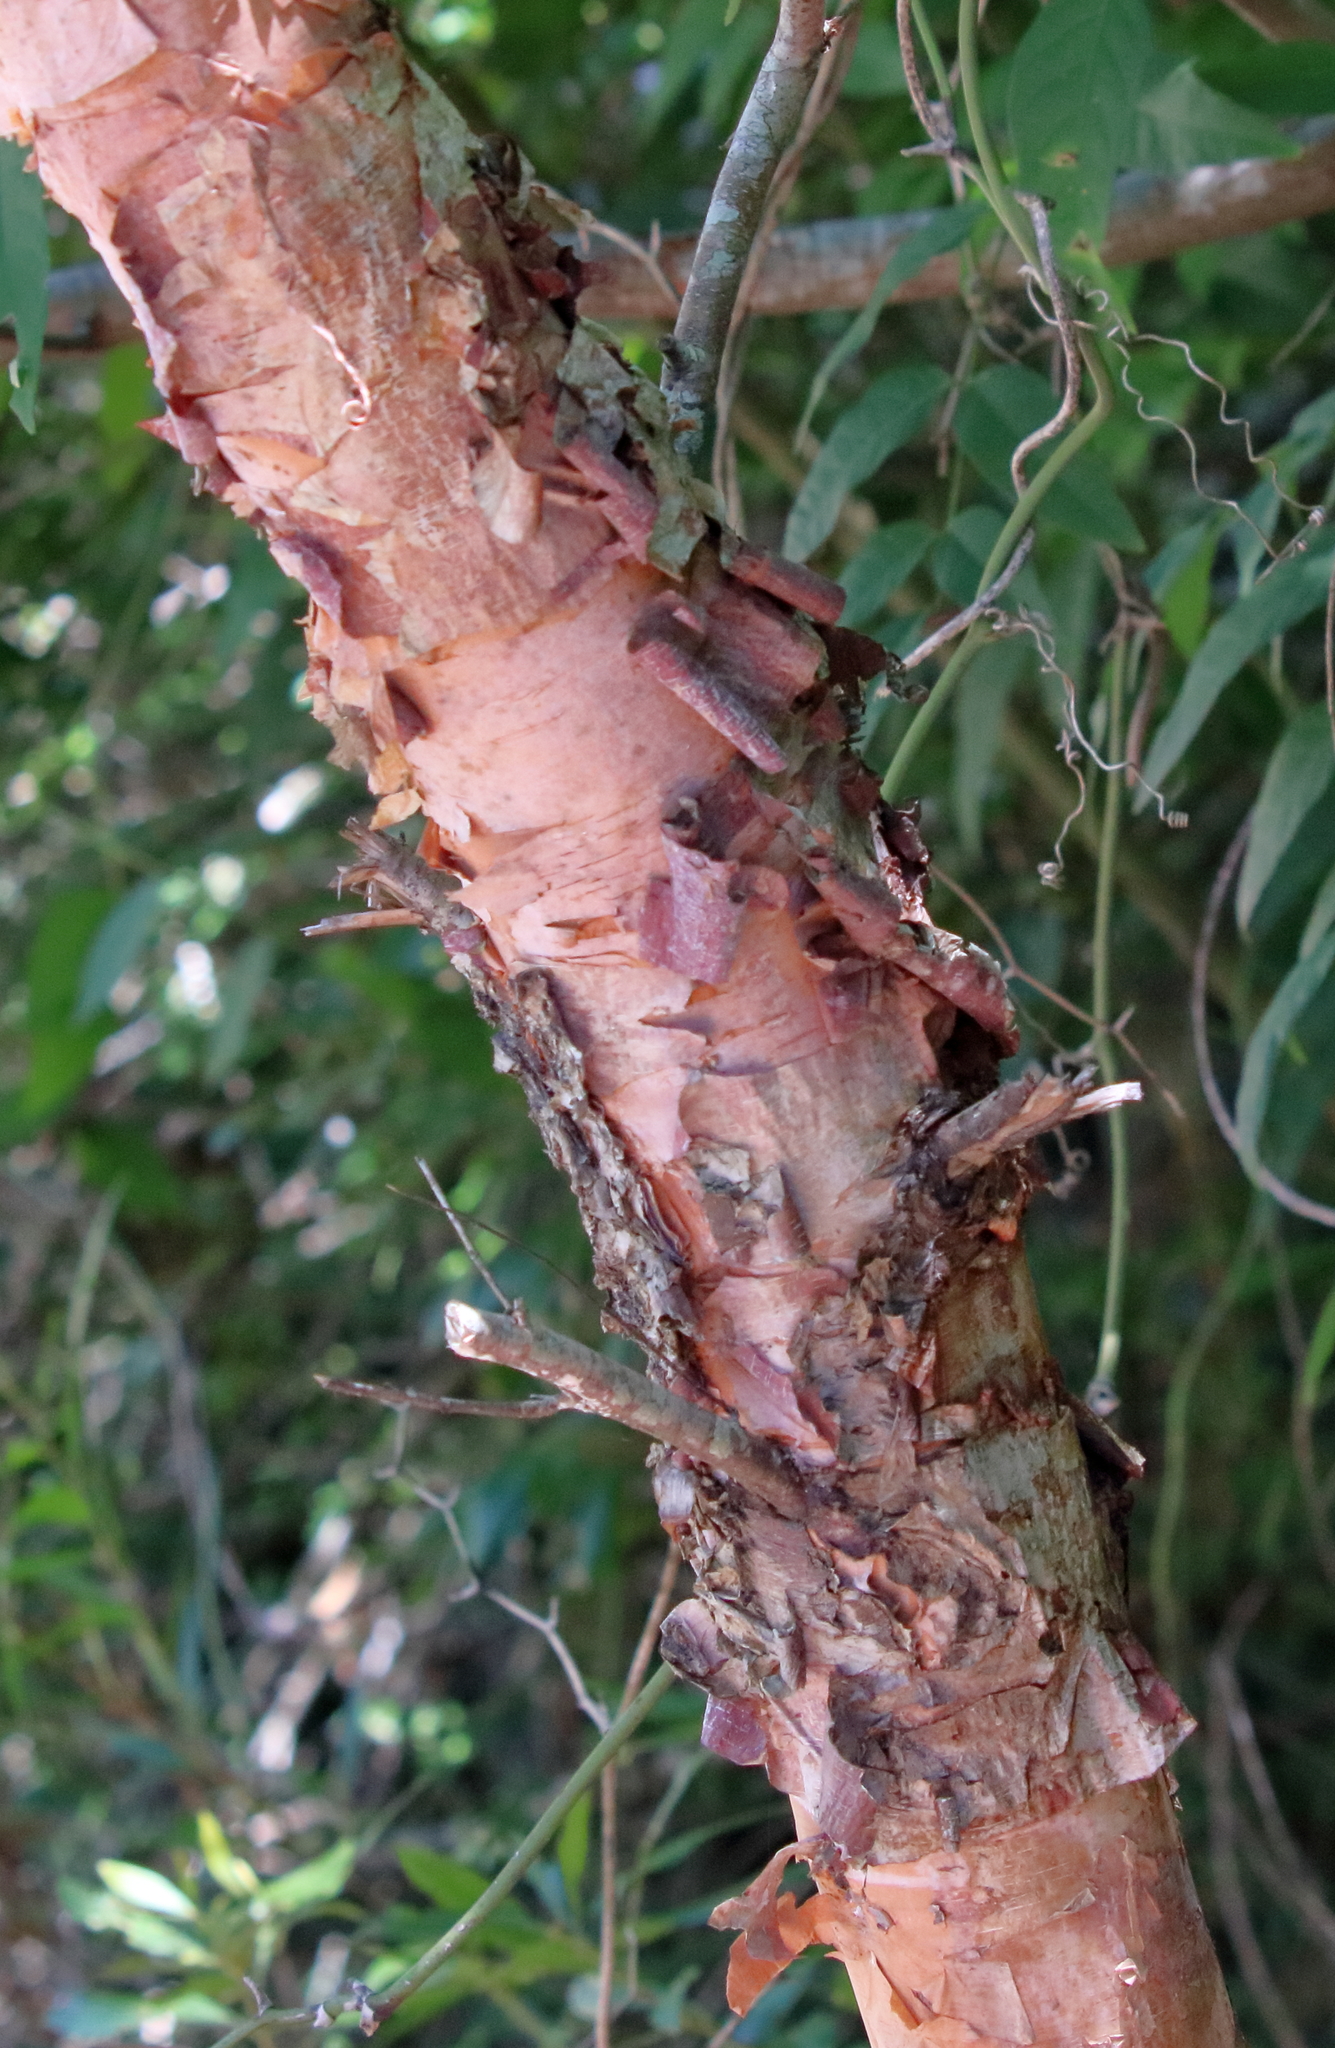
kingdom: Plantae
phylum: Tracheophyta
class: Magnoliopsida
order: Fagales
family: Betulaceae
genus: Betula
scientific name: Betula nigra
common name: Black birch
